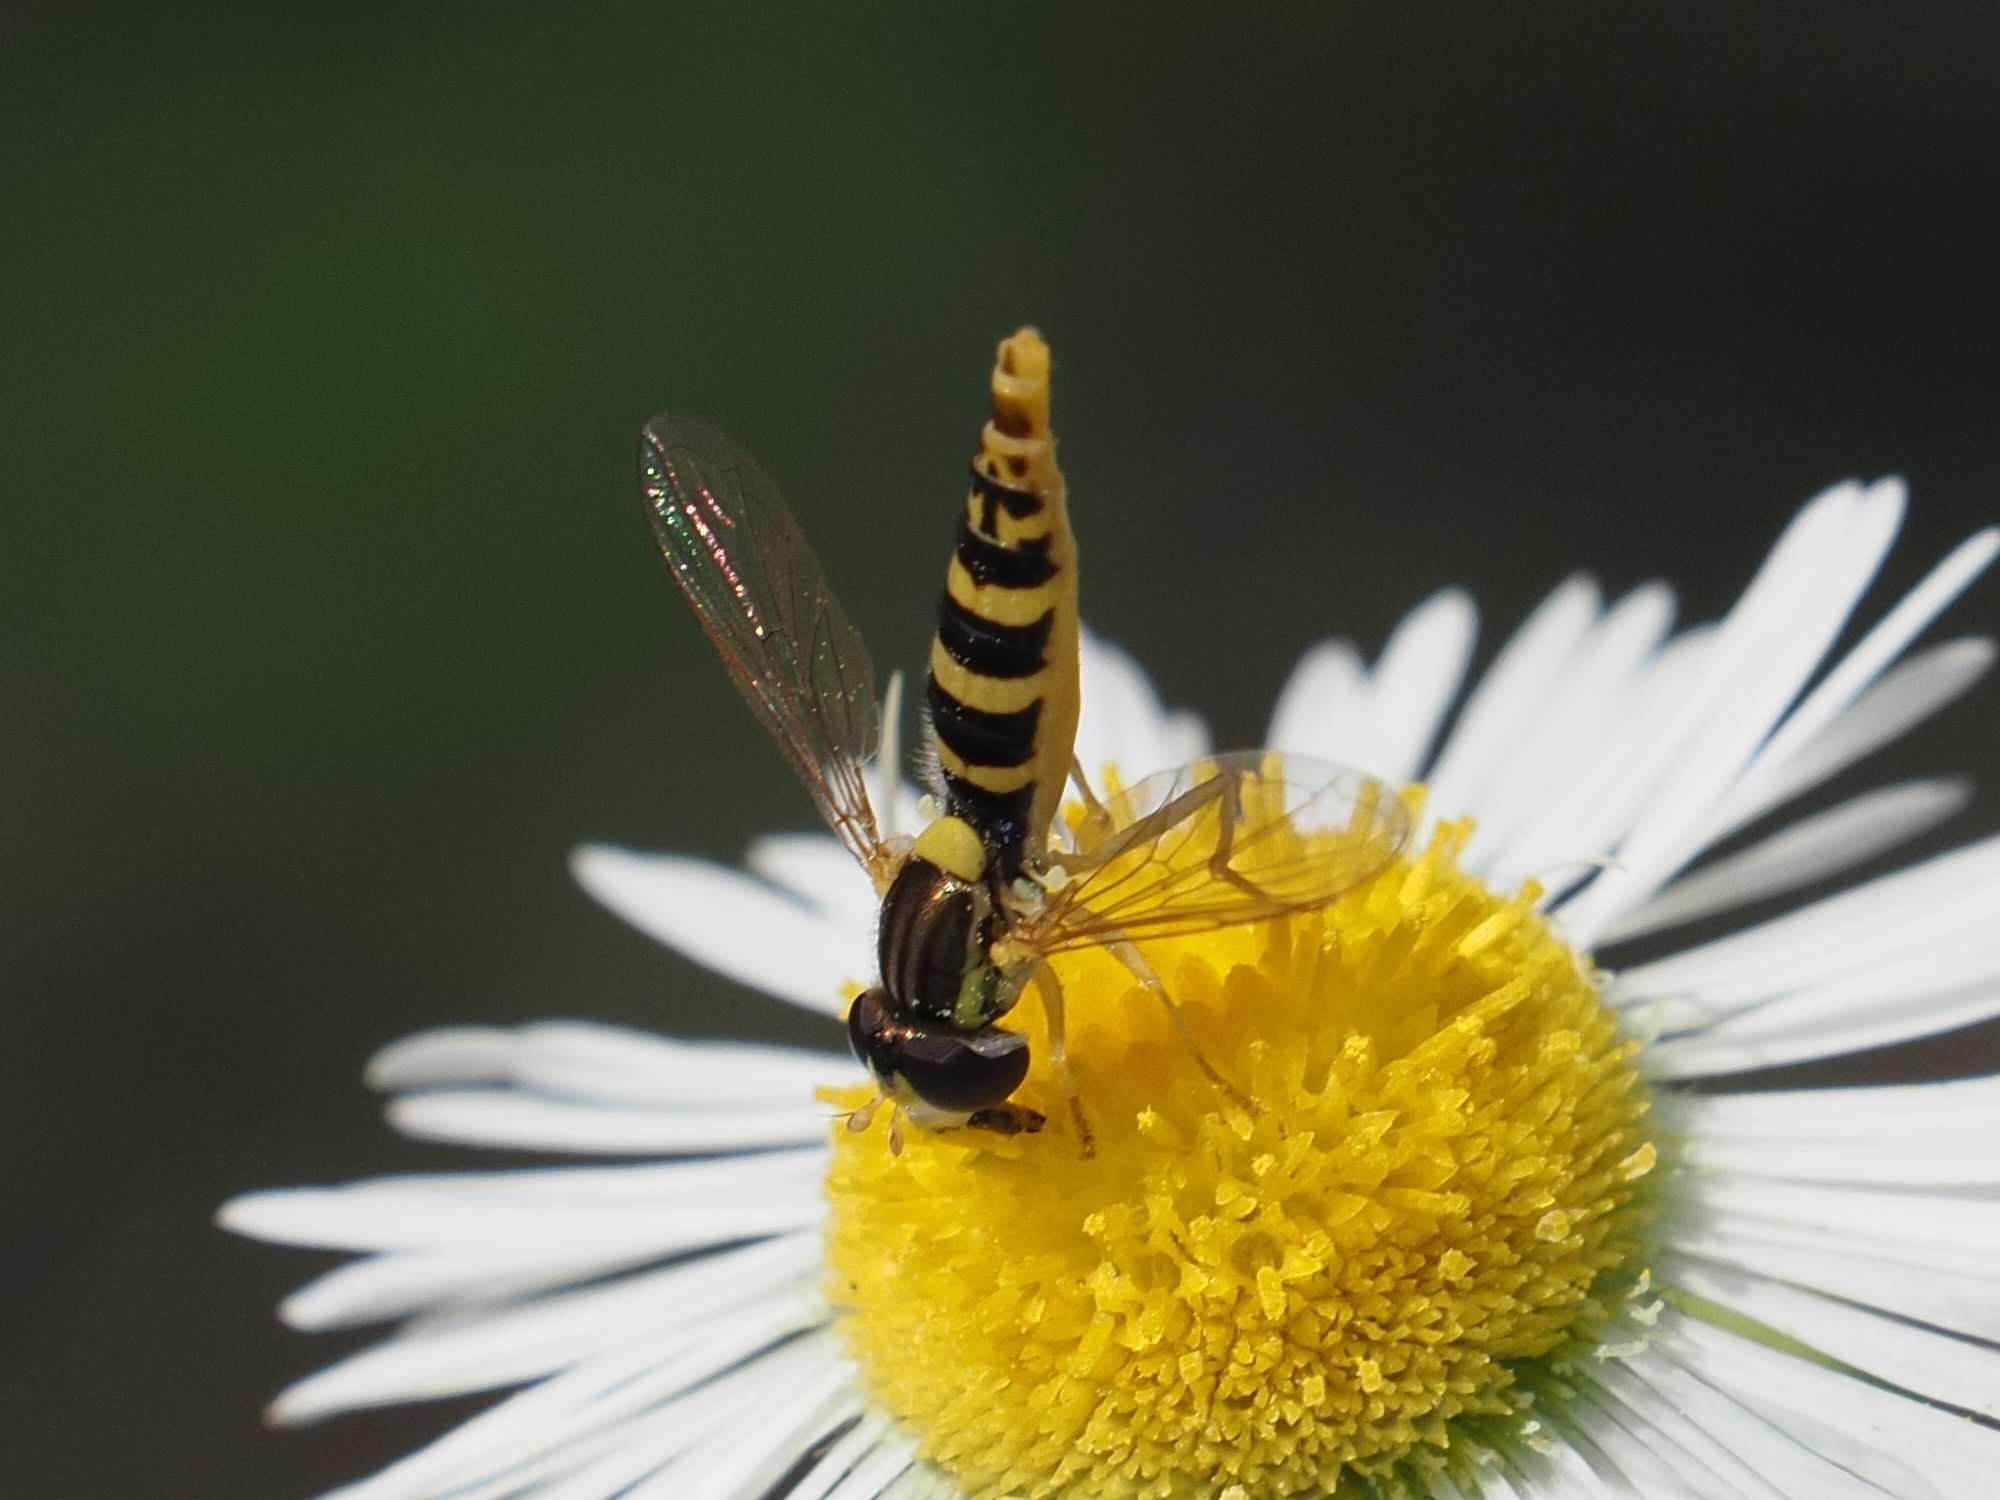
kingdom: Animalia
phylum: Arthropoda
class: Insecta
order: Diptera
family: Syrphidae
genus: Sphaerophoria
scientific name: Sphaerophoria
